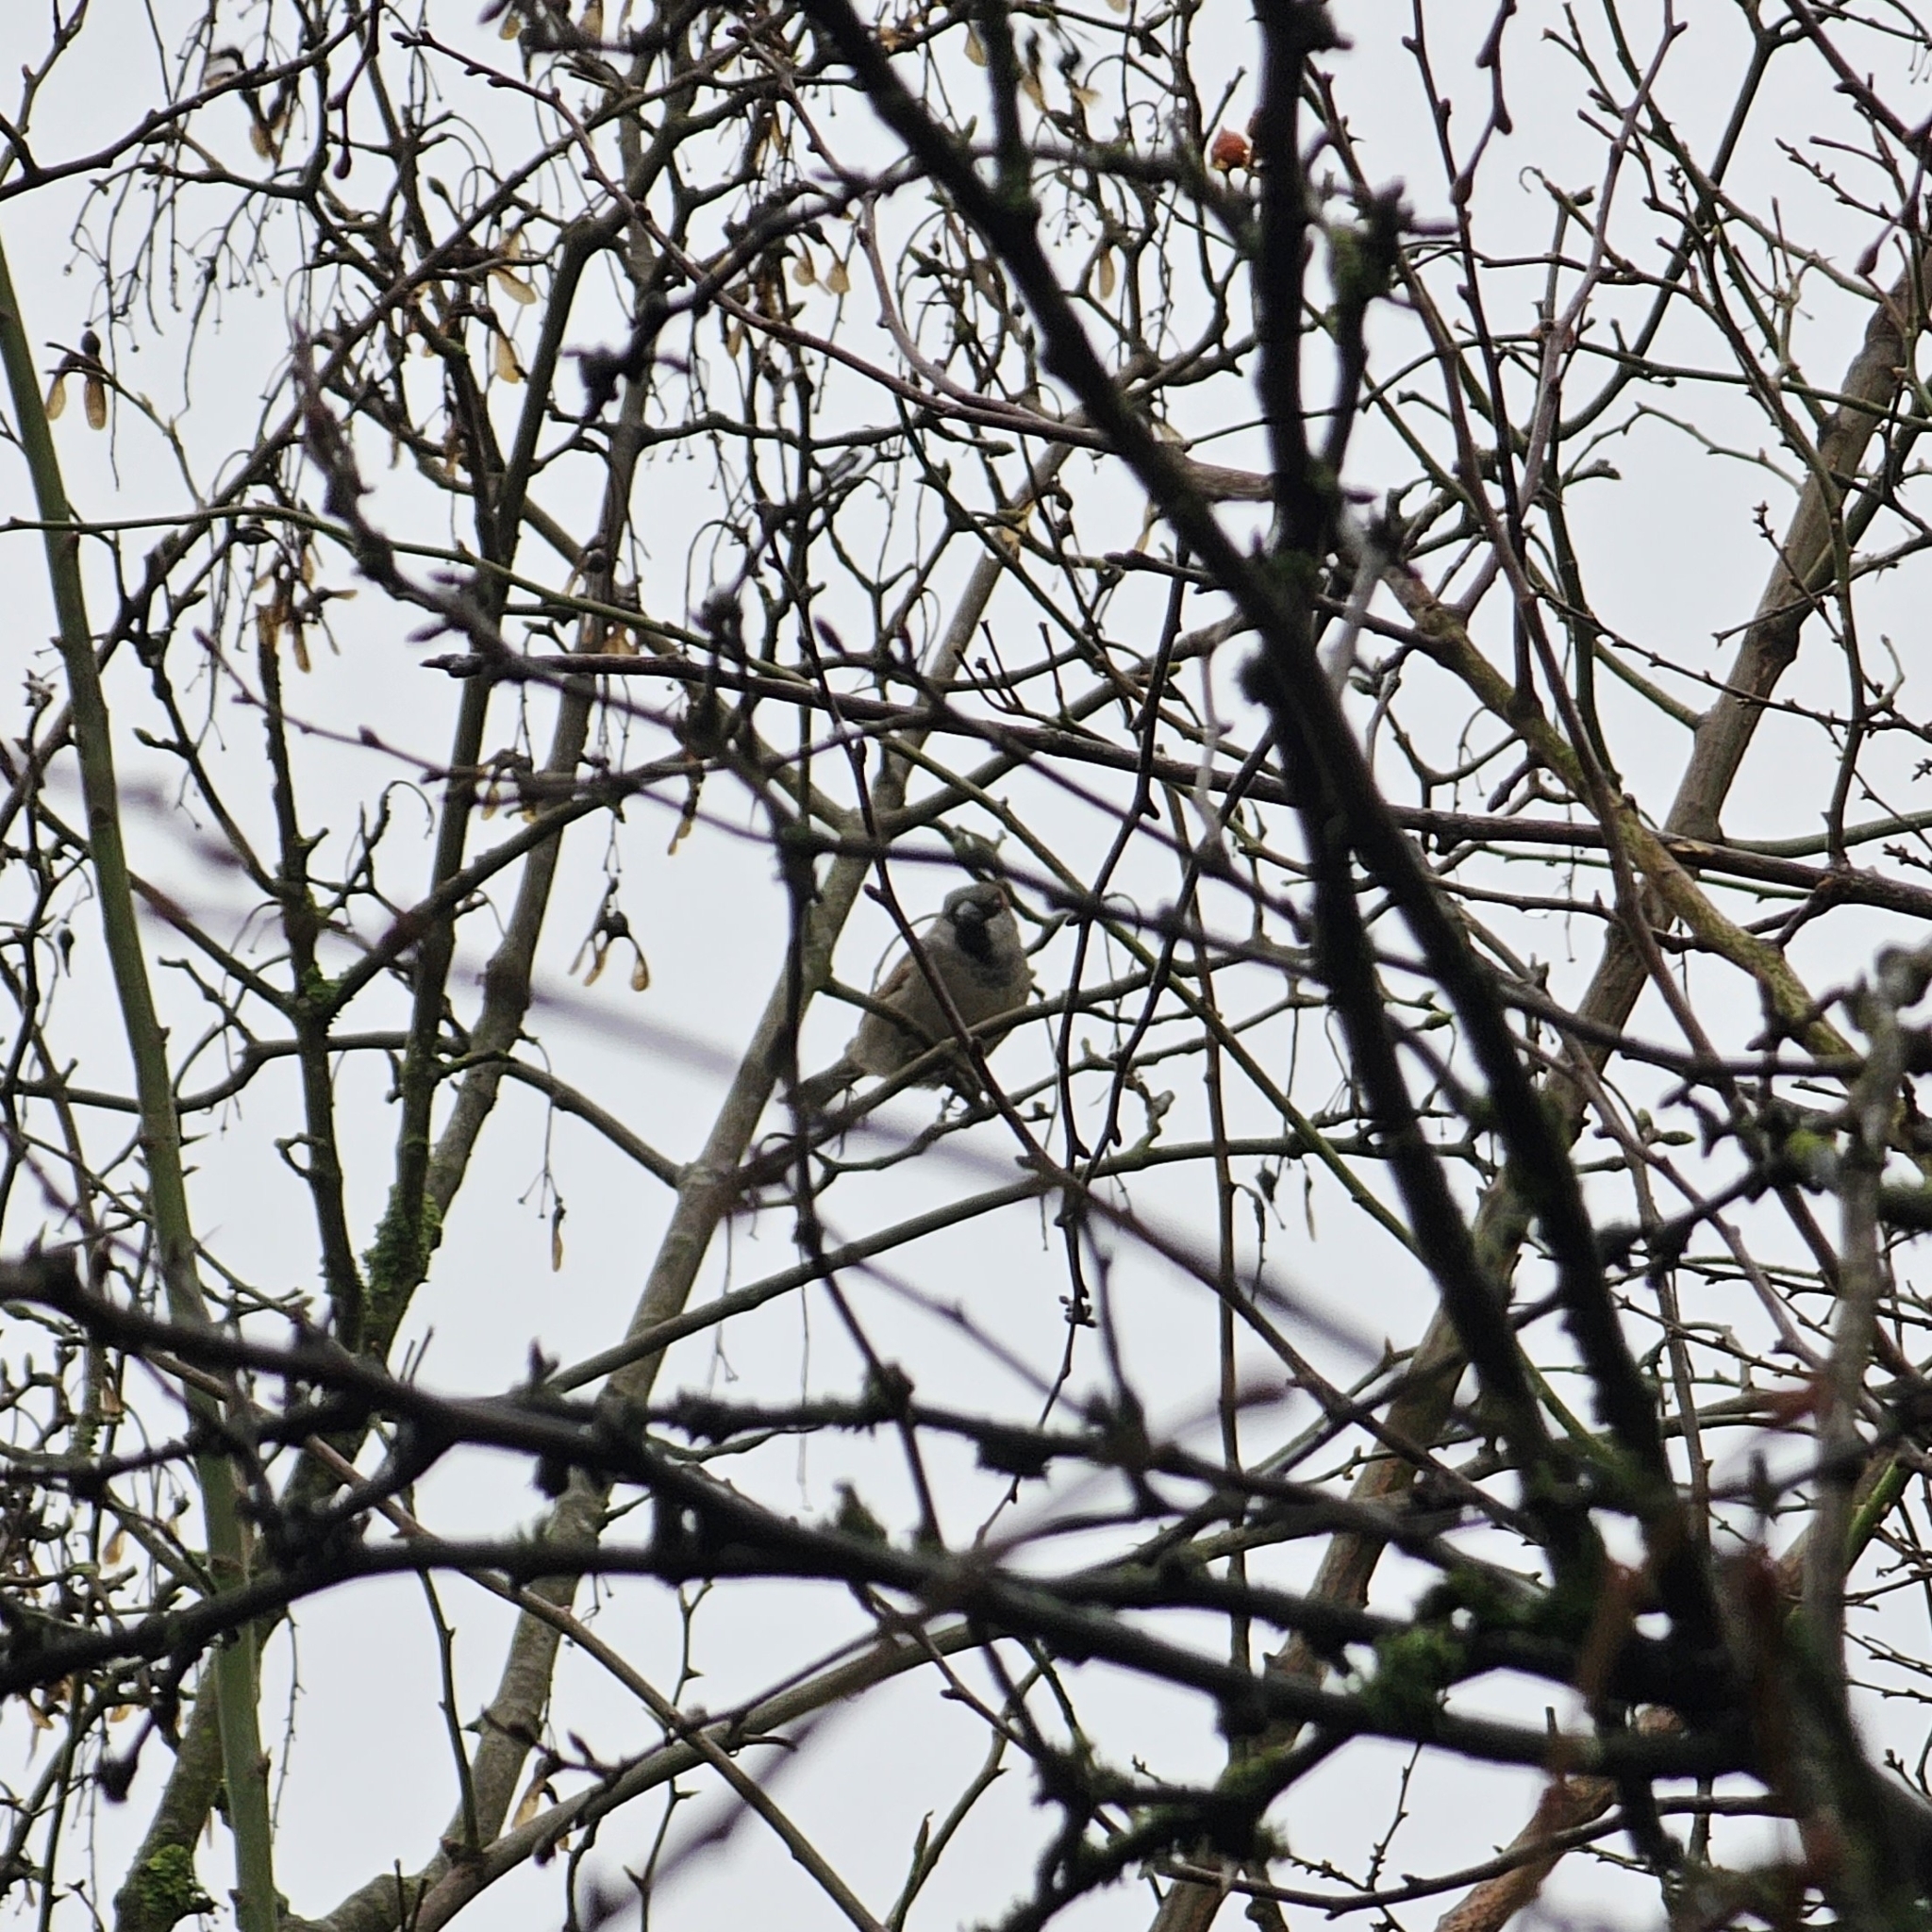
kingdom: Animalia
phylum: Chordata
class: Aves
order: Passeriformes
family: Passeridae
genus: Passer
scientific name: Passer domesticus
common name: House sparrow
